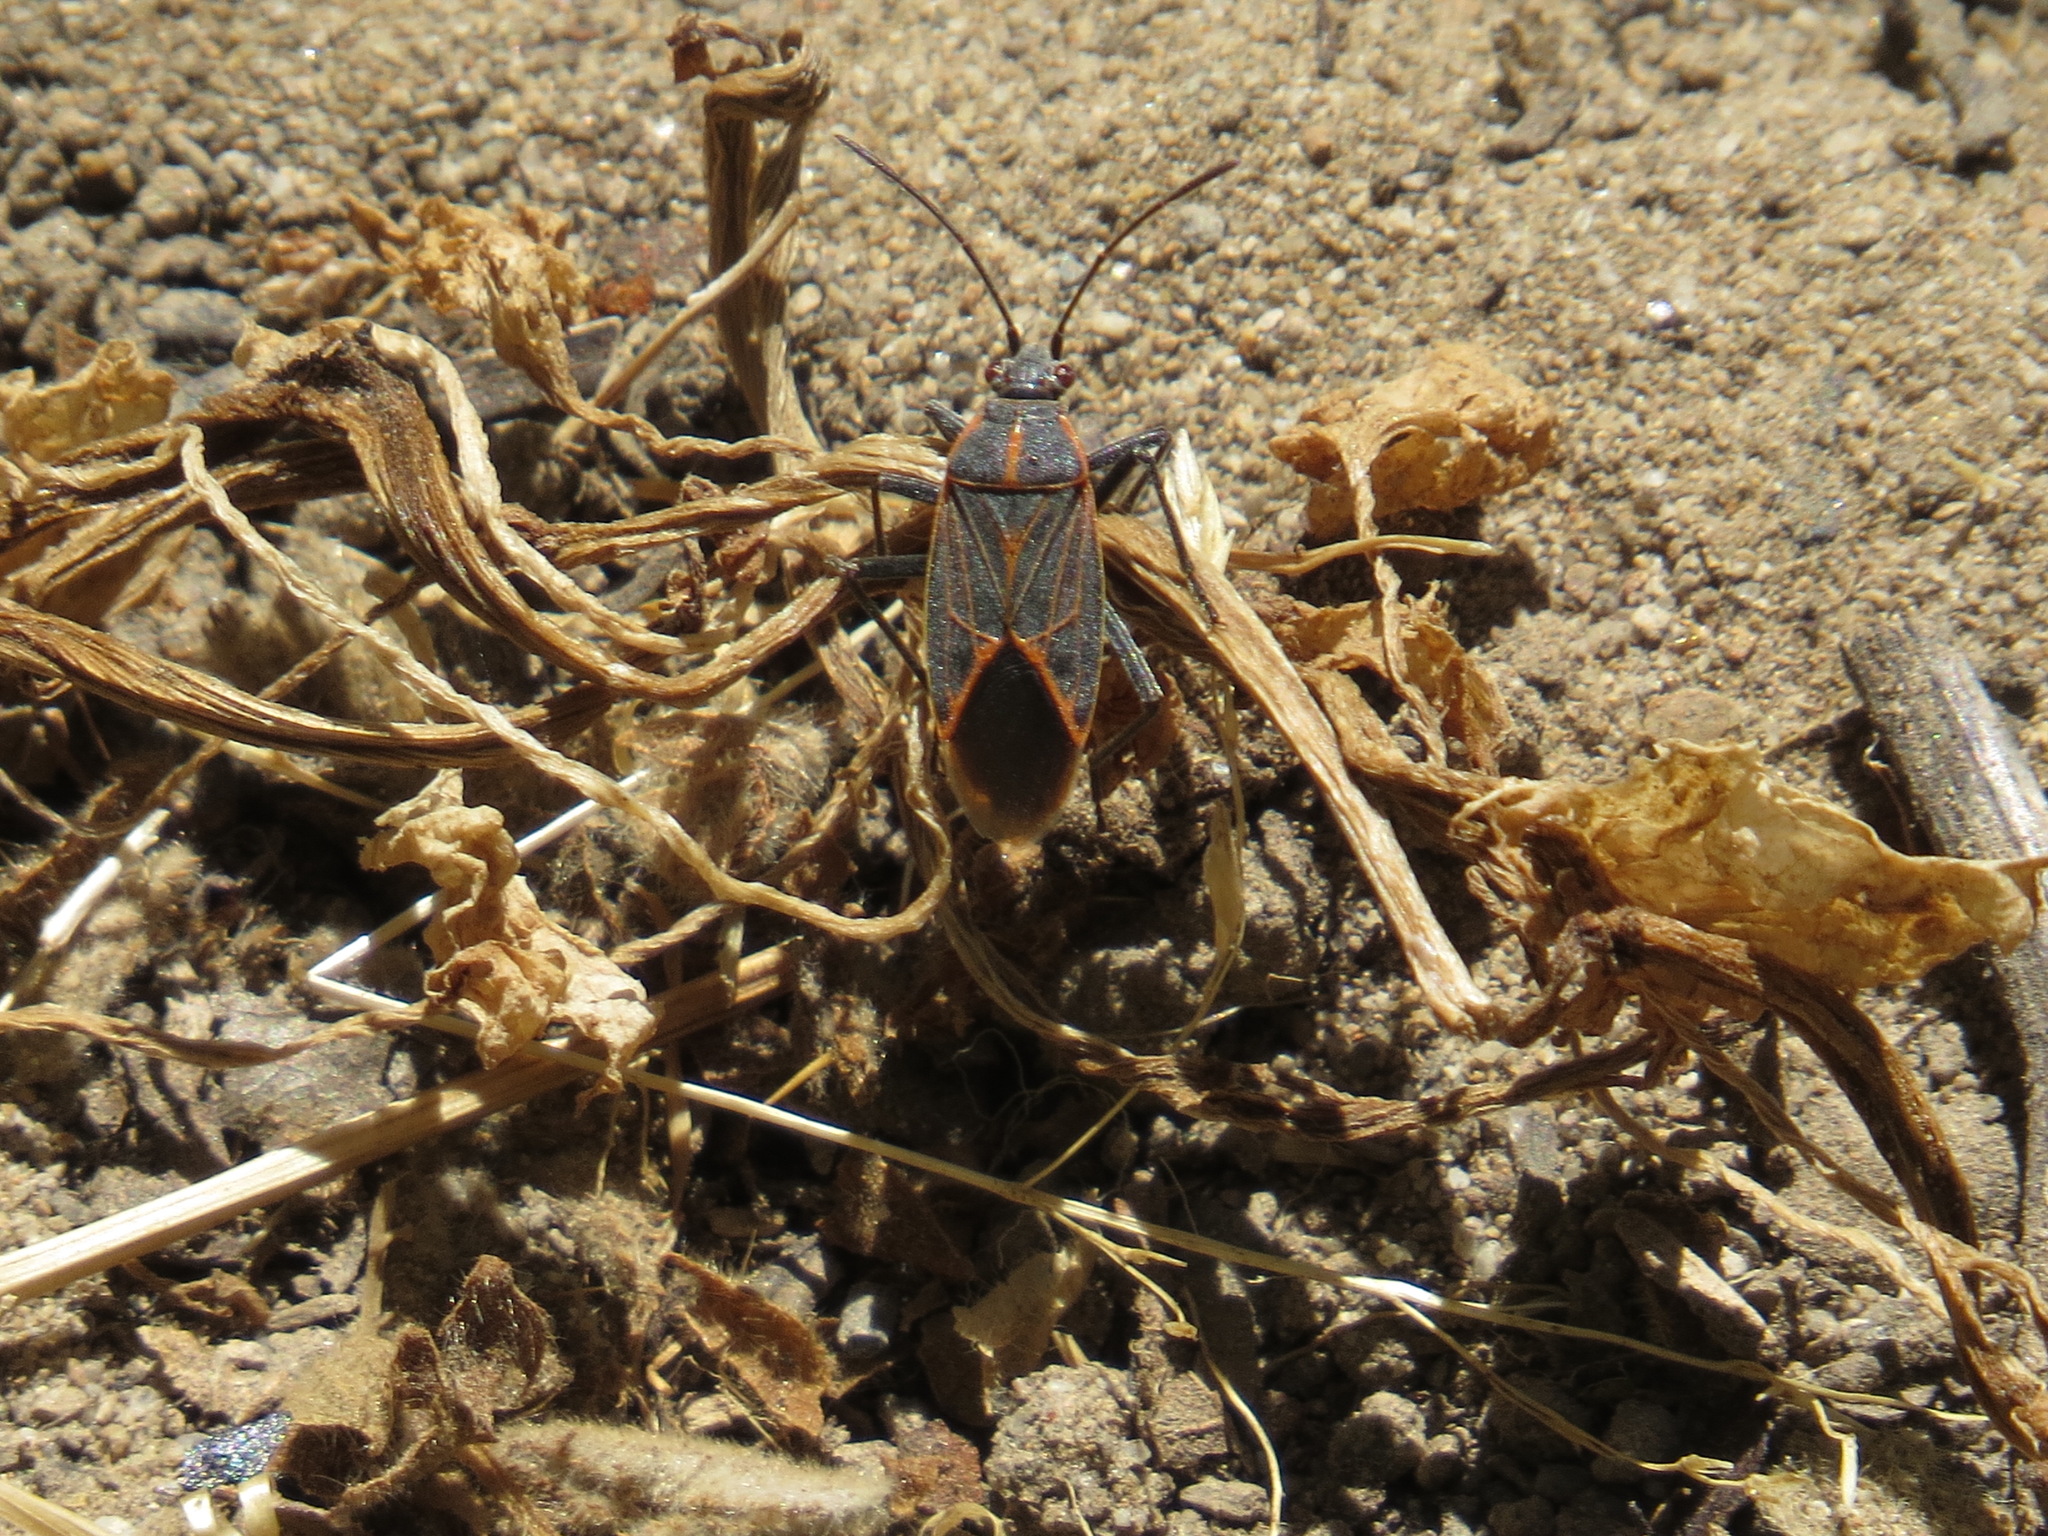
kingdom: Animalia
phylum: Arthropoda
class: Insecta
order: Hemiptera
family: Rhopalidae
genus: Boisea
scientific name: Boisea rubrolineata
